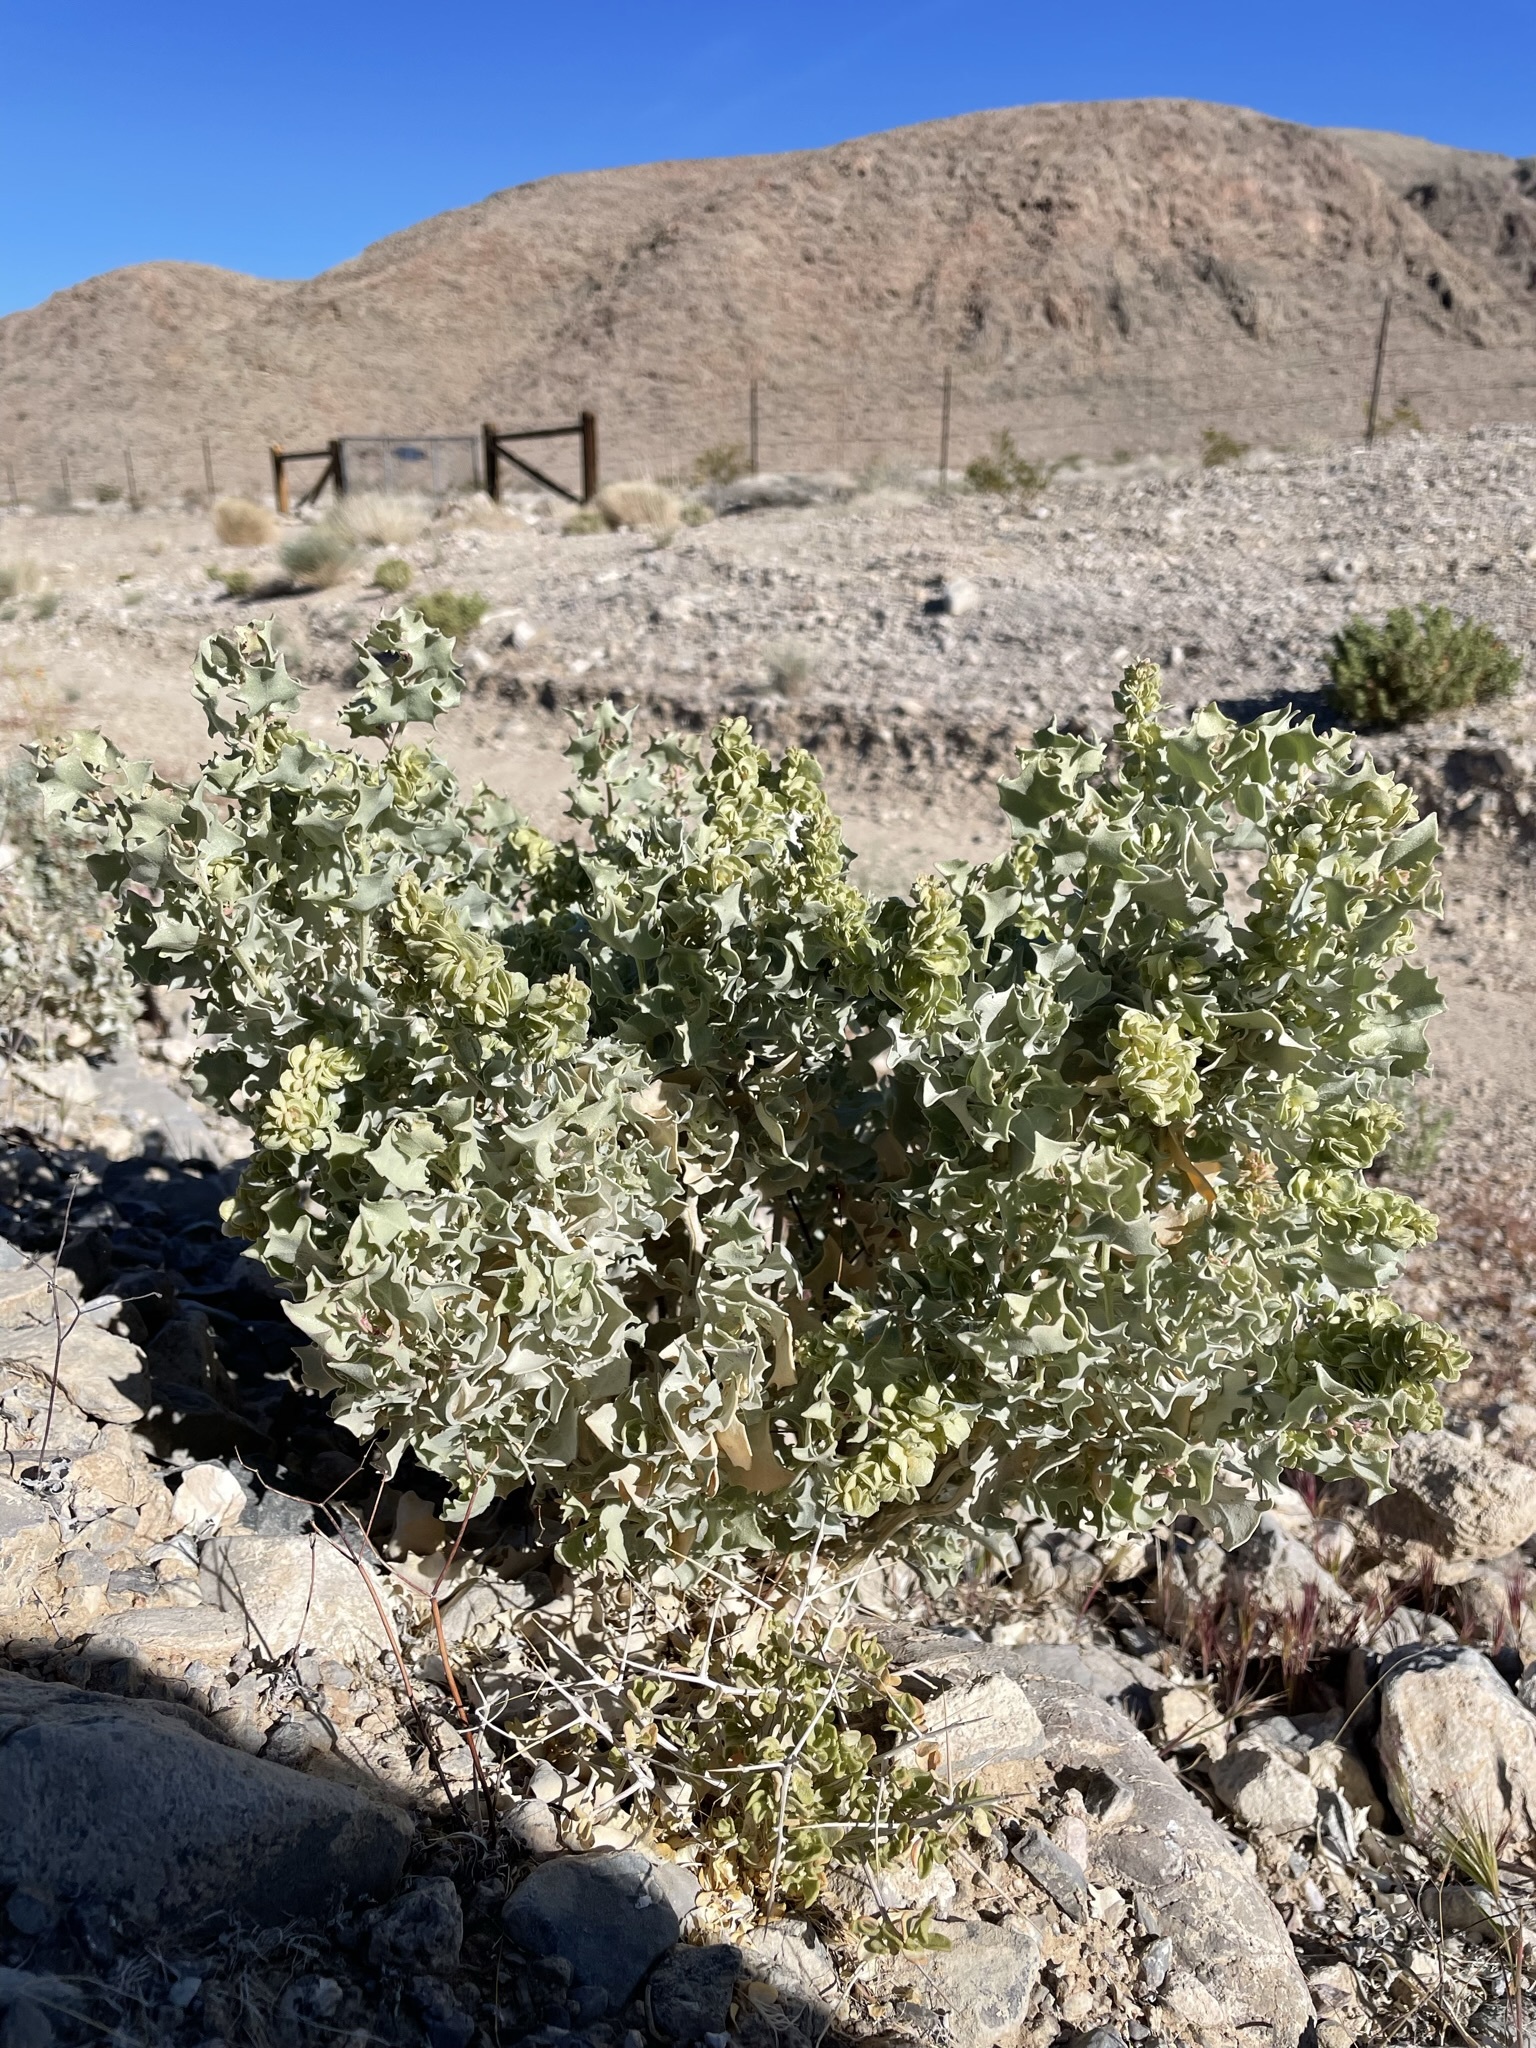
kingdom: Plantae
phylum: Tracheophyta
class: Magnoliopsida
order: Caryophyllales
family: Amaranthaceae
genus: Atriplex
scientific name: Atriplex hymenelytra
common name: Desert-holly
